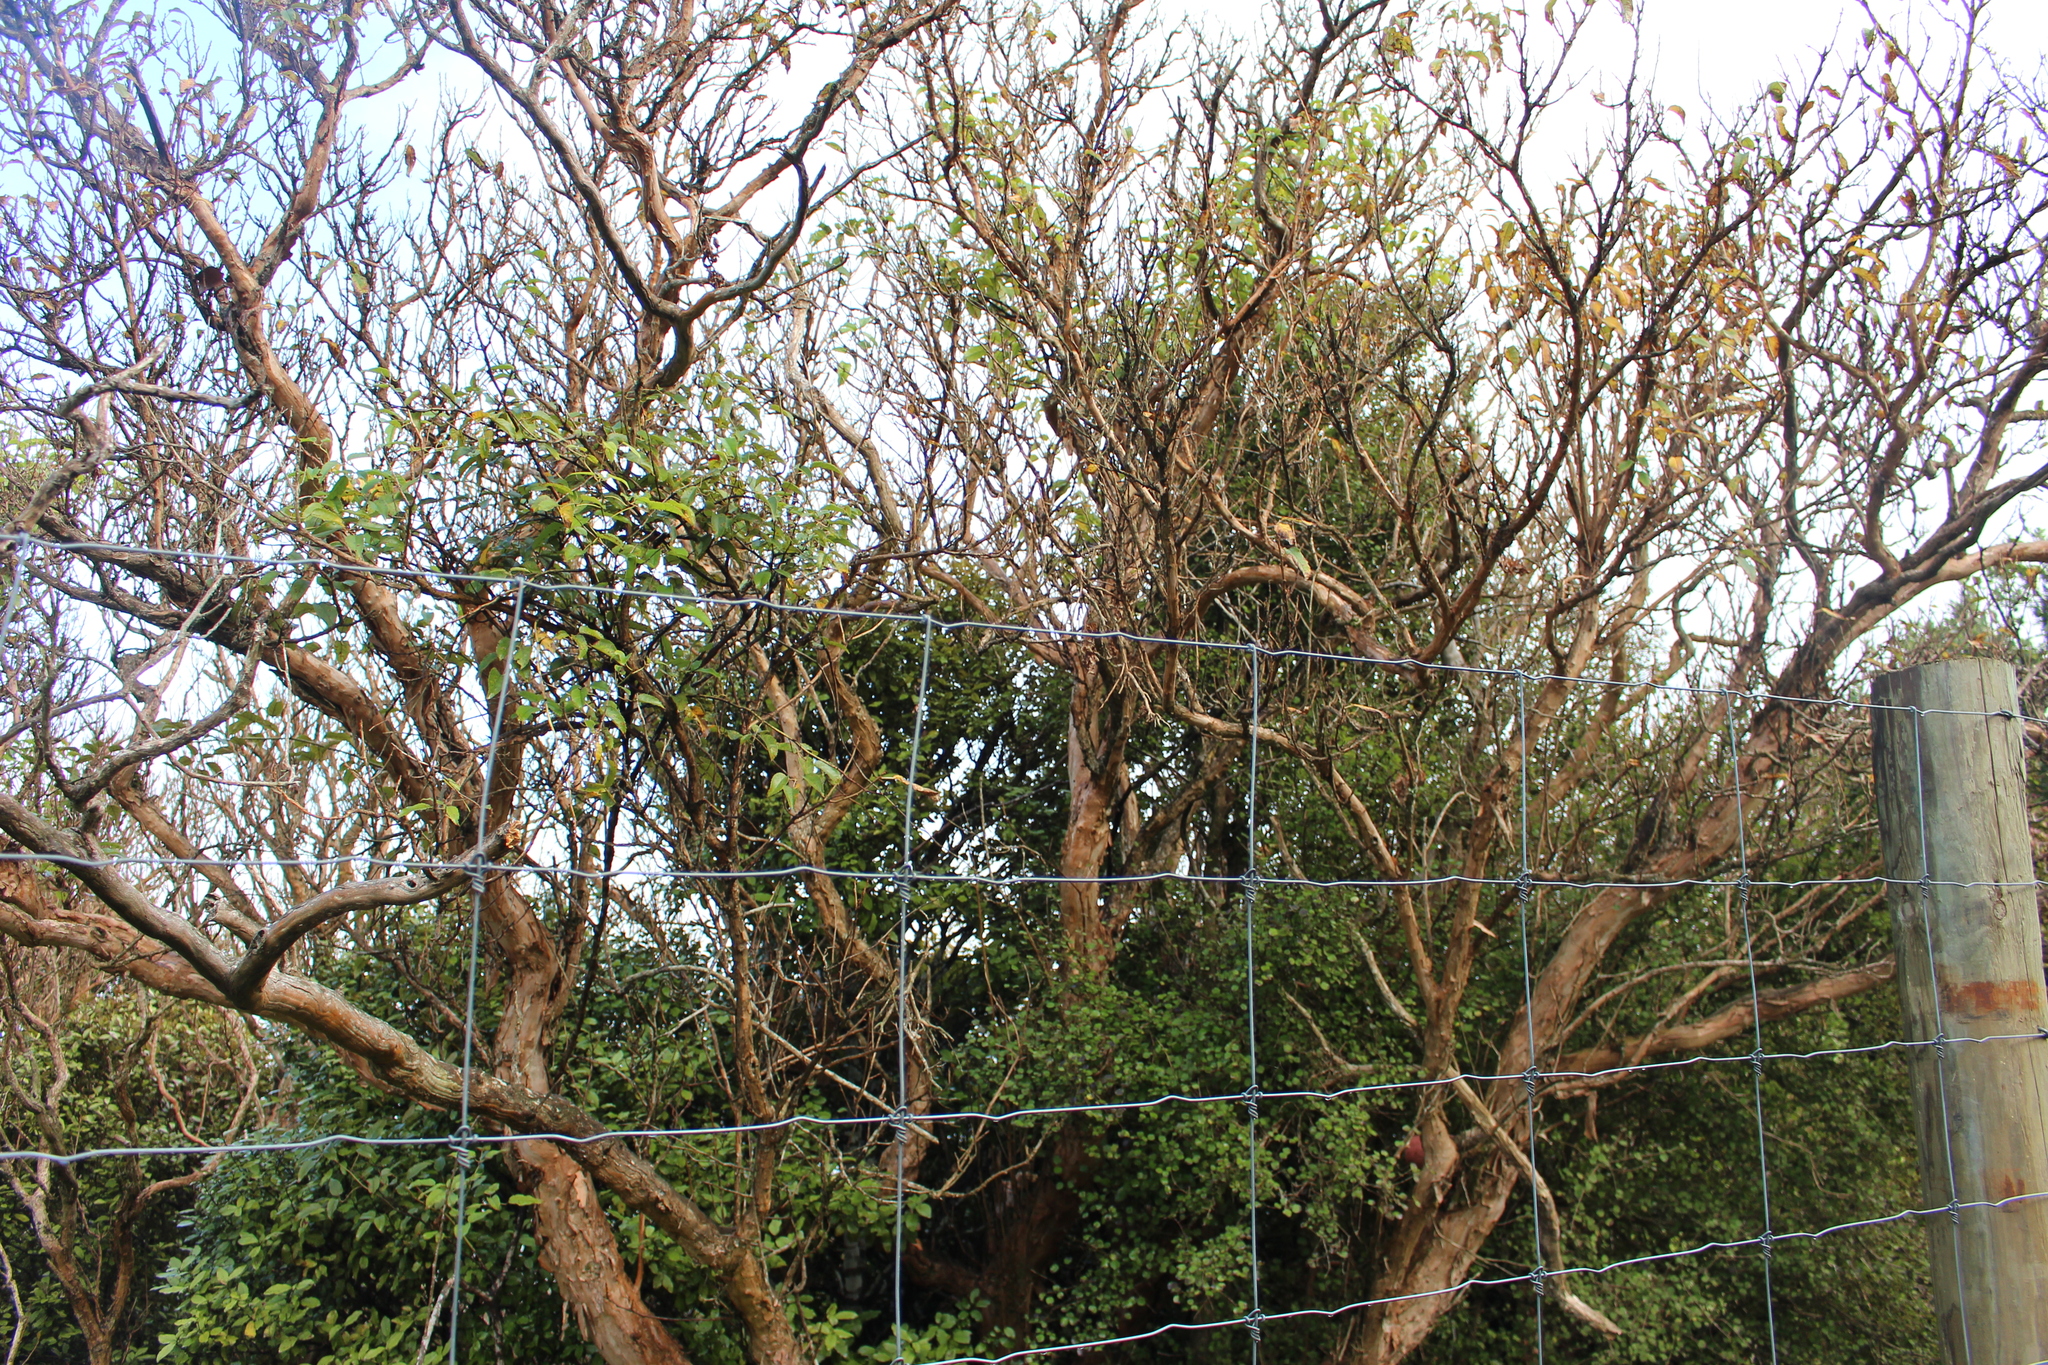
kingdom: Plantae
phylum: Tracheophyta
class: Magnoliopsida
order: Myrtales
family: Onagraceae
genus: Fuchsia
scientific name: Fuchsia excorticata
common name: Tree fuchsia
